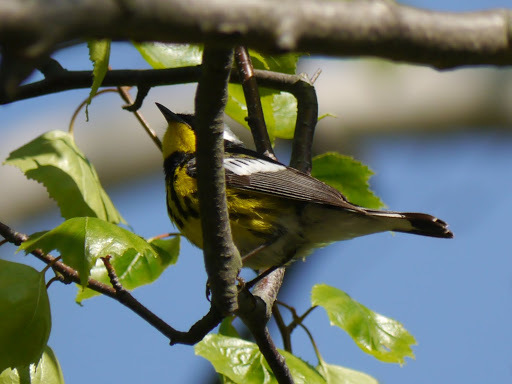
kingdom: Animalia
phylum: Chordata
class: Aves
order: Passeriformes
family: Parulidae
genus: Setophaga
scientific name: Setophaga magnolia
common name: Magnolia warbler
